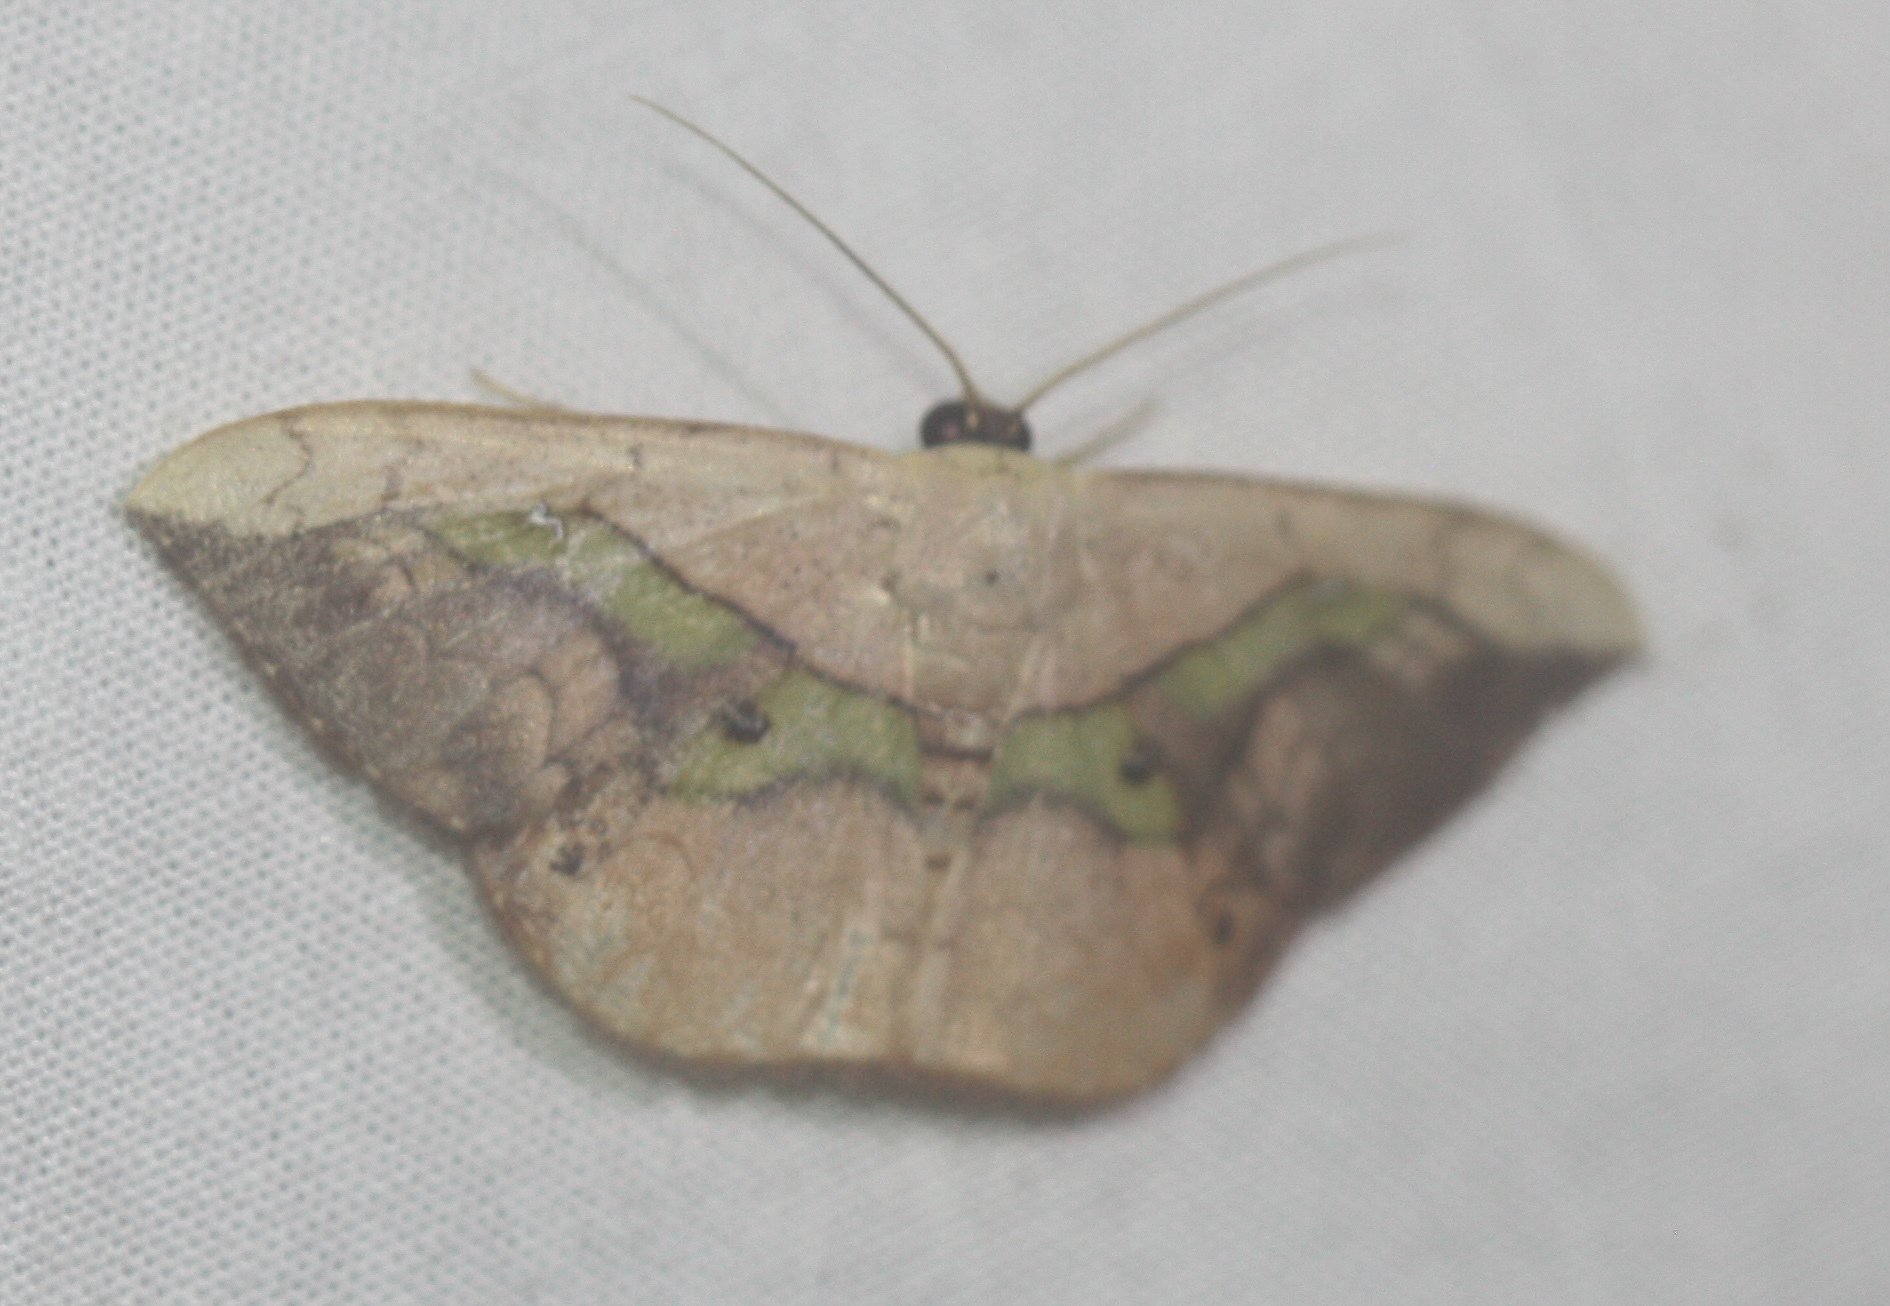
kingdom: Animalia
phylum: Arthropoda
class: Insecta
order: Lepidoptera
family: Geometridae
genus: Semaeopus
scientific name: Semaeopus varia
